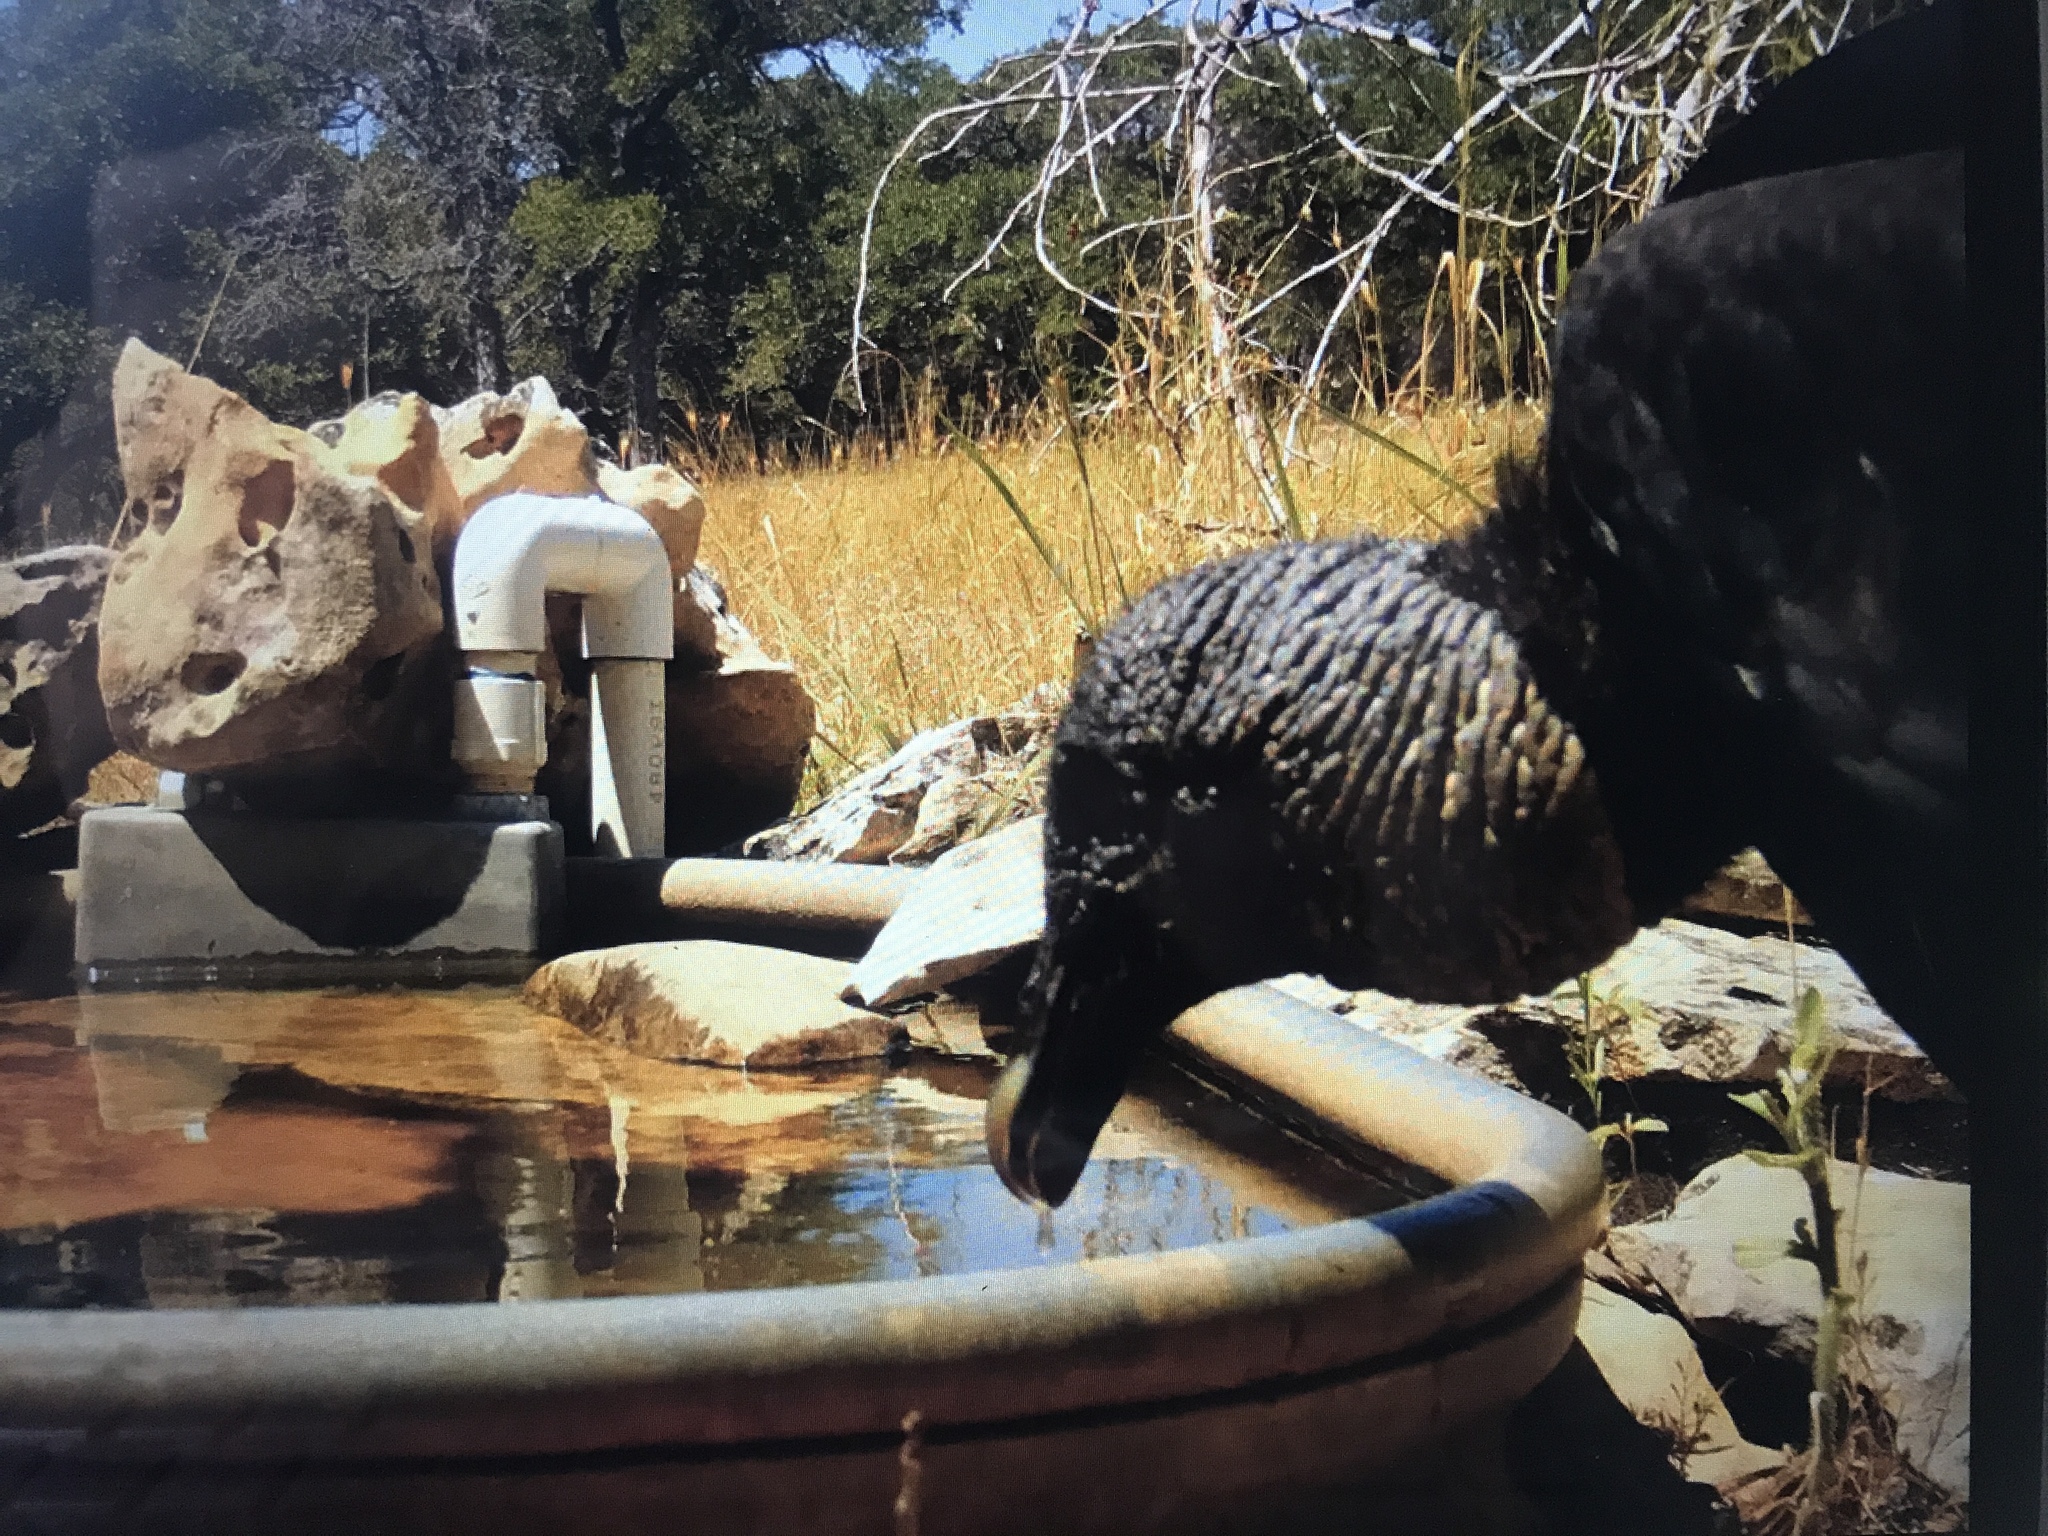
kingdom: Animalia
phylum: Chordata
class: Aves
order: Accipitriformes
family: Cathartidae
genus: Coragyps
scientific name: Coragyps atratus
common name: Black vulture
